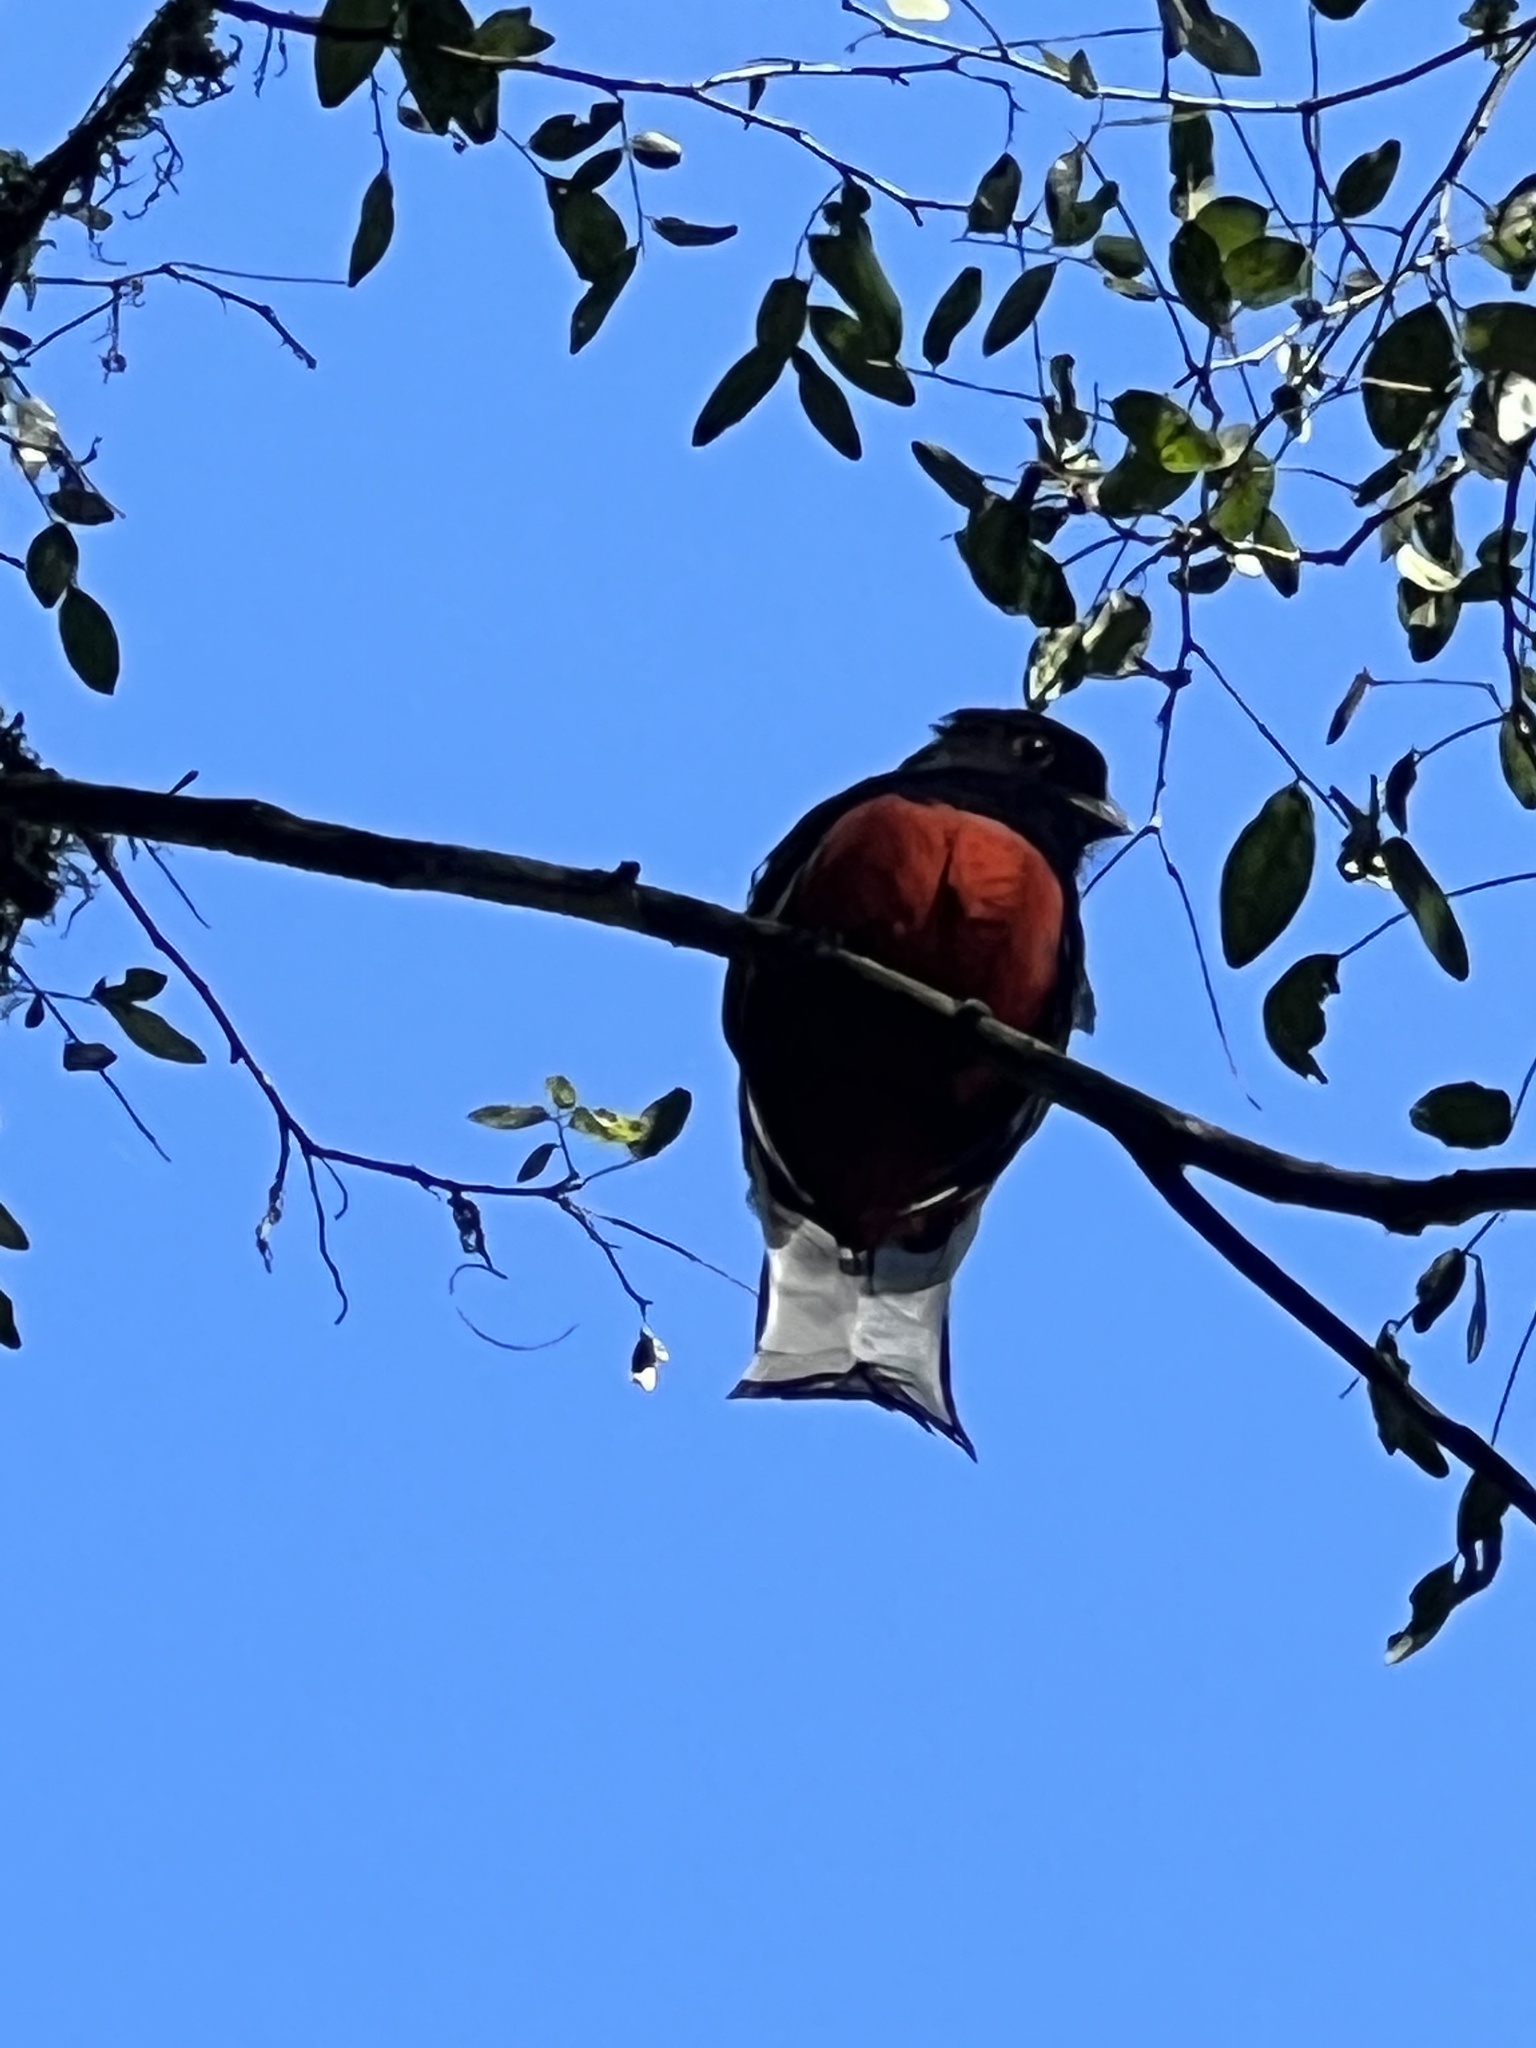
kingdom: Animalia
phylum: Chordata
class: Aves
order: Trogoniformes
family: Trogonidae
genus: Trogon
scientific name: Trogon surrucura
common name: Surucua trogon
